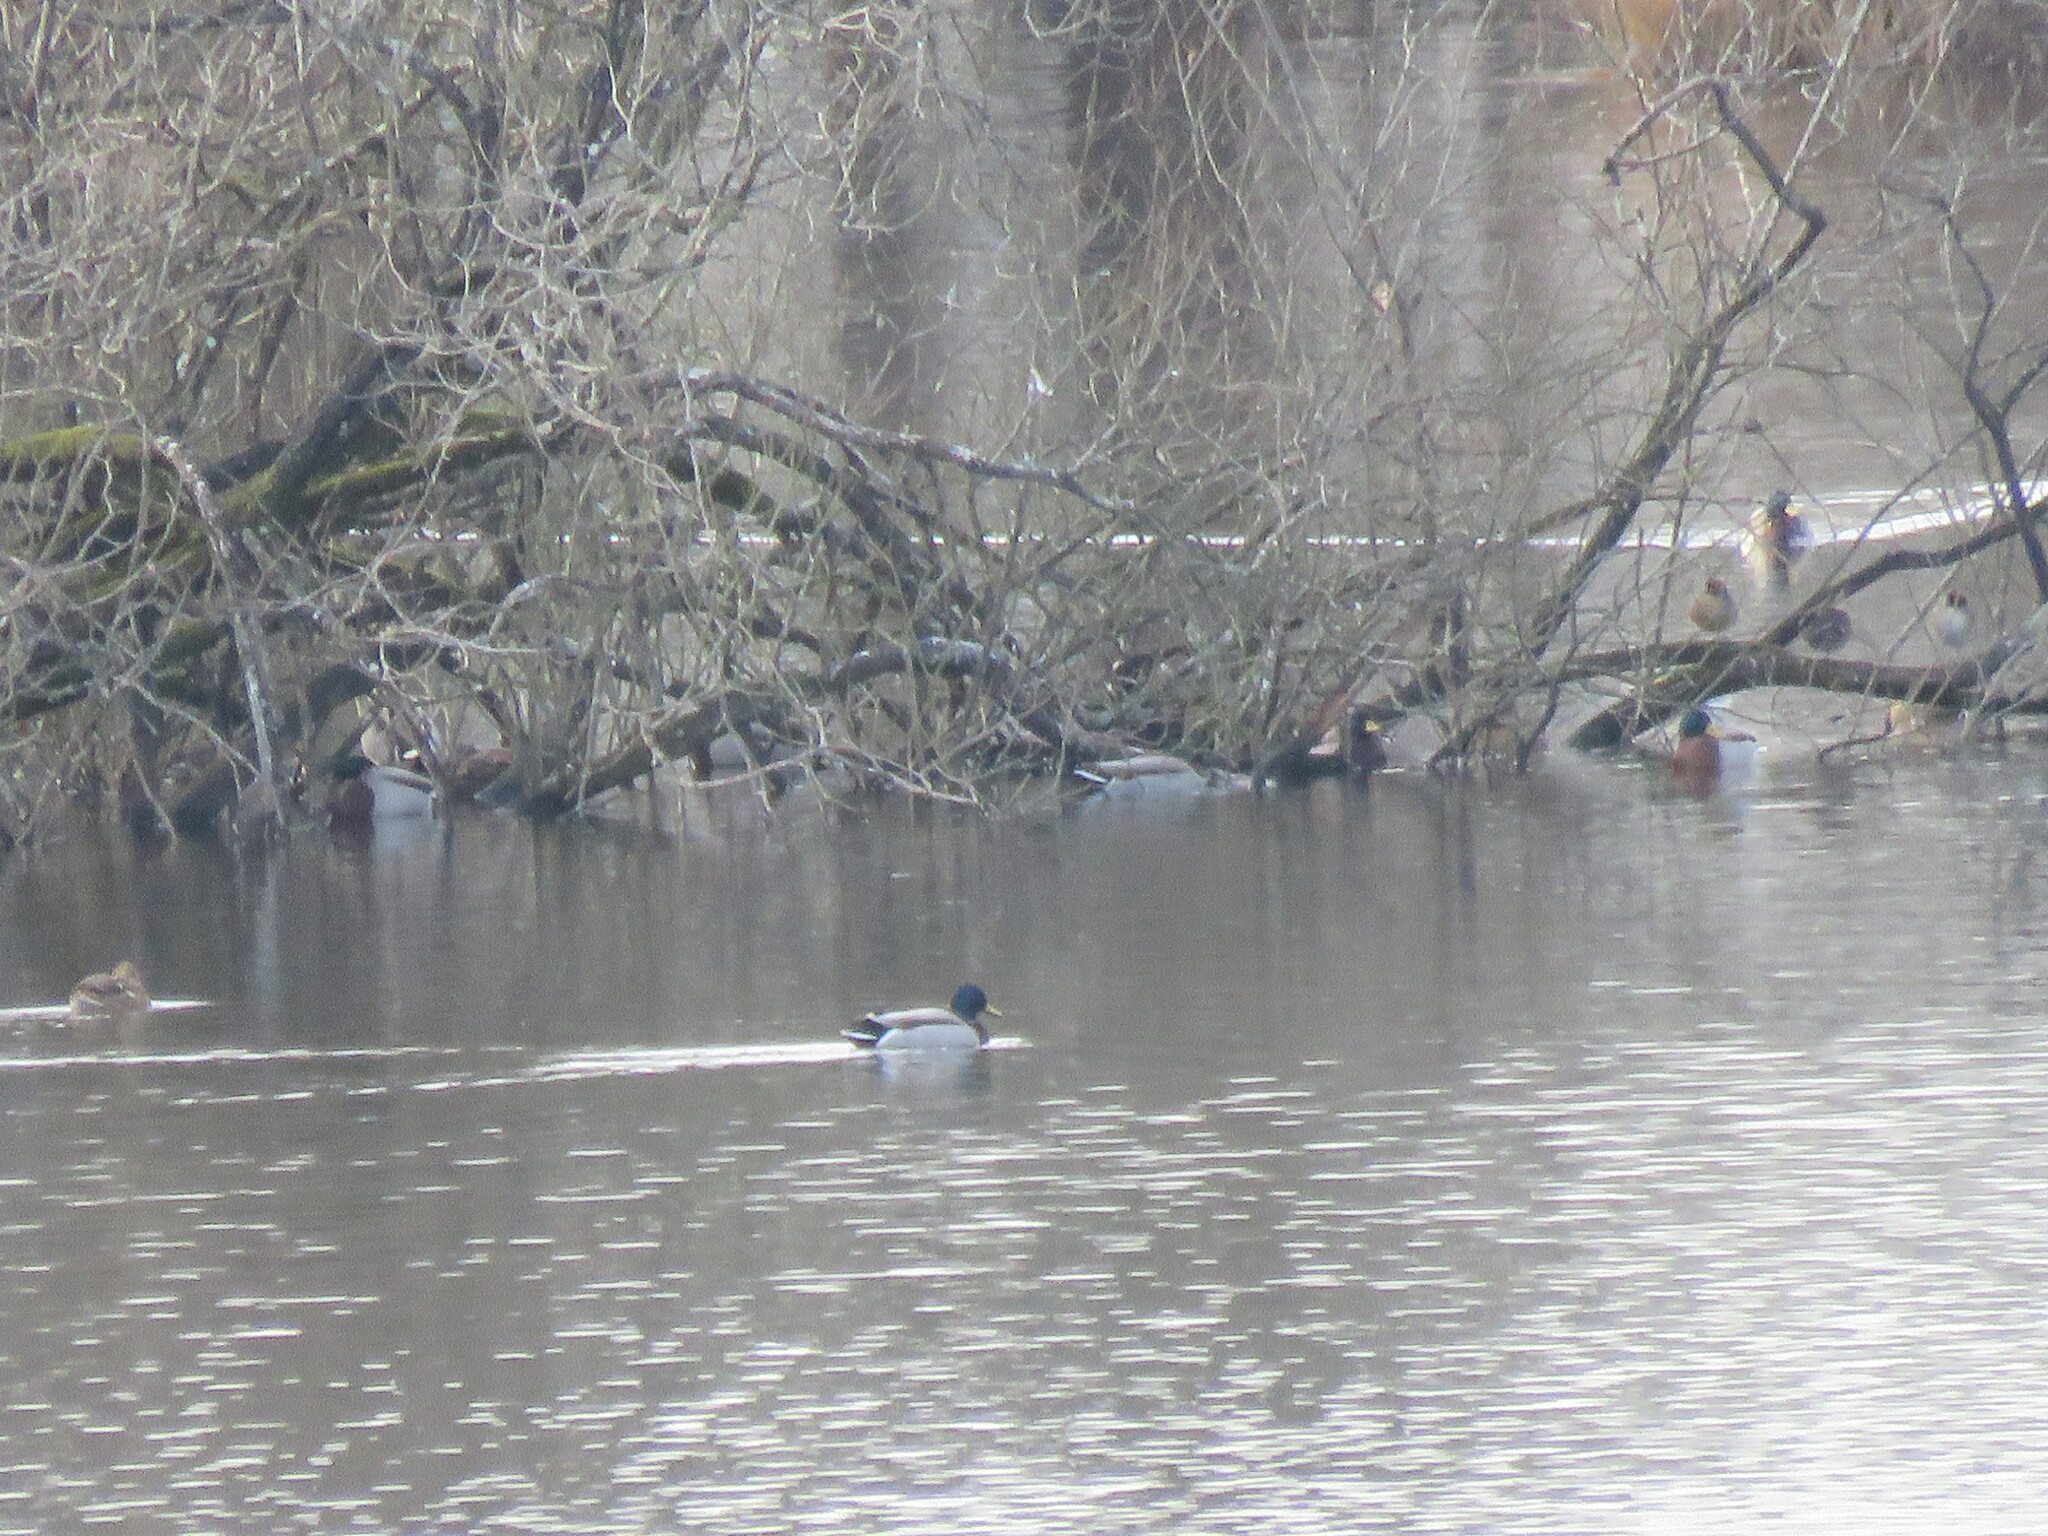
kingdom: Animalia
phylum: Chordata
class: Aves
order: Anseriformes
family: Anatidae
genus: Anas
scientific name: Anas platyrhynchos
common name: Mallard
